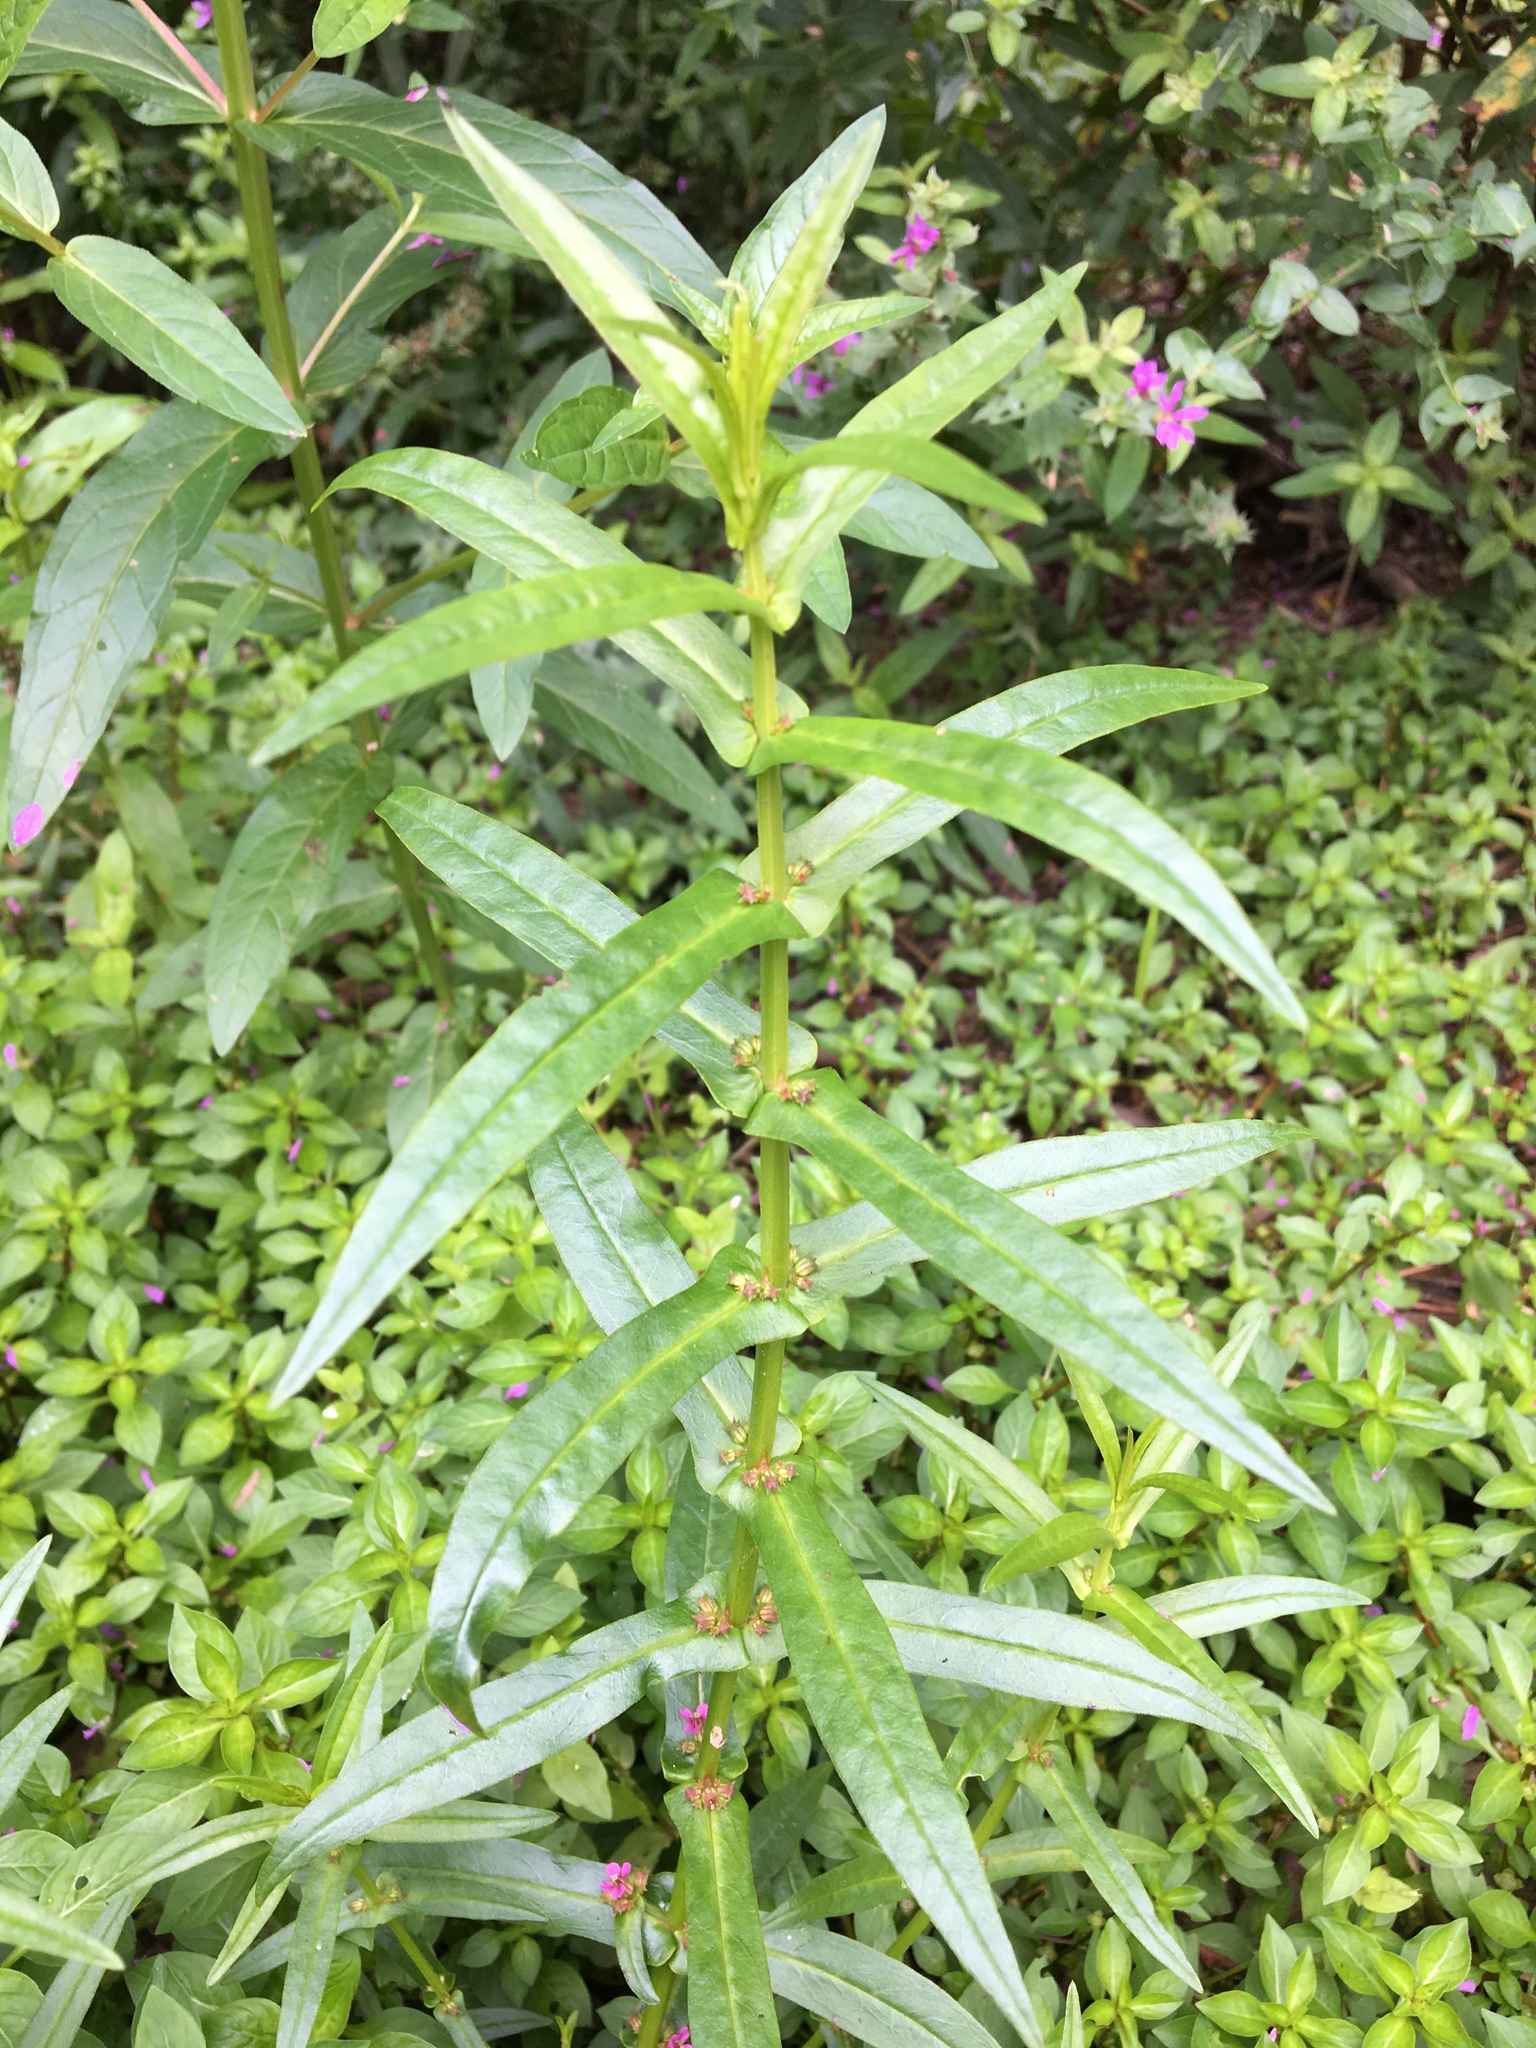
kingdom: Plantae
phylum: Tracheophyta
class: Magnoliopsida
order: Myrtales
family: Lythraceae
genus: Ammannia
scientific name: Ammannia coccinea
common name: Valley redstem
